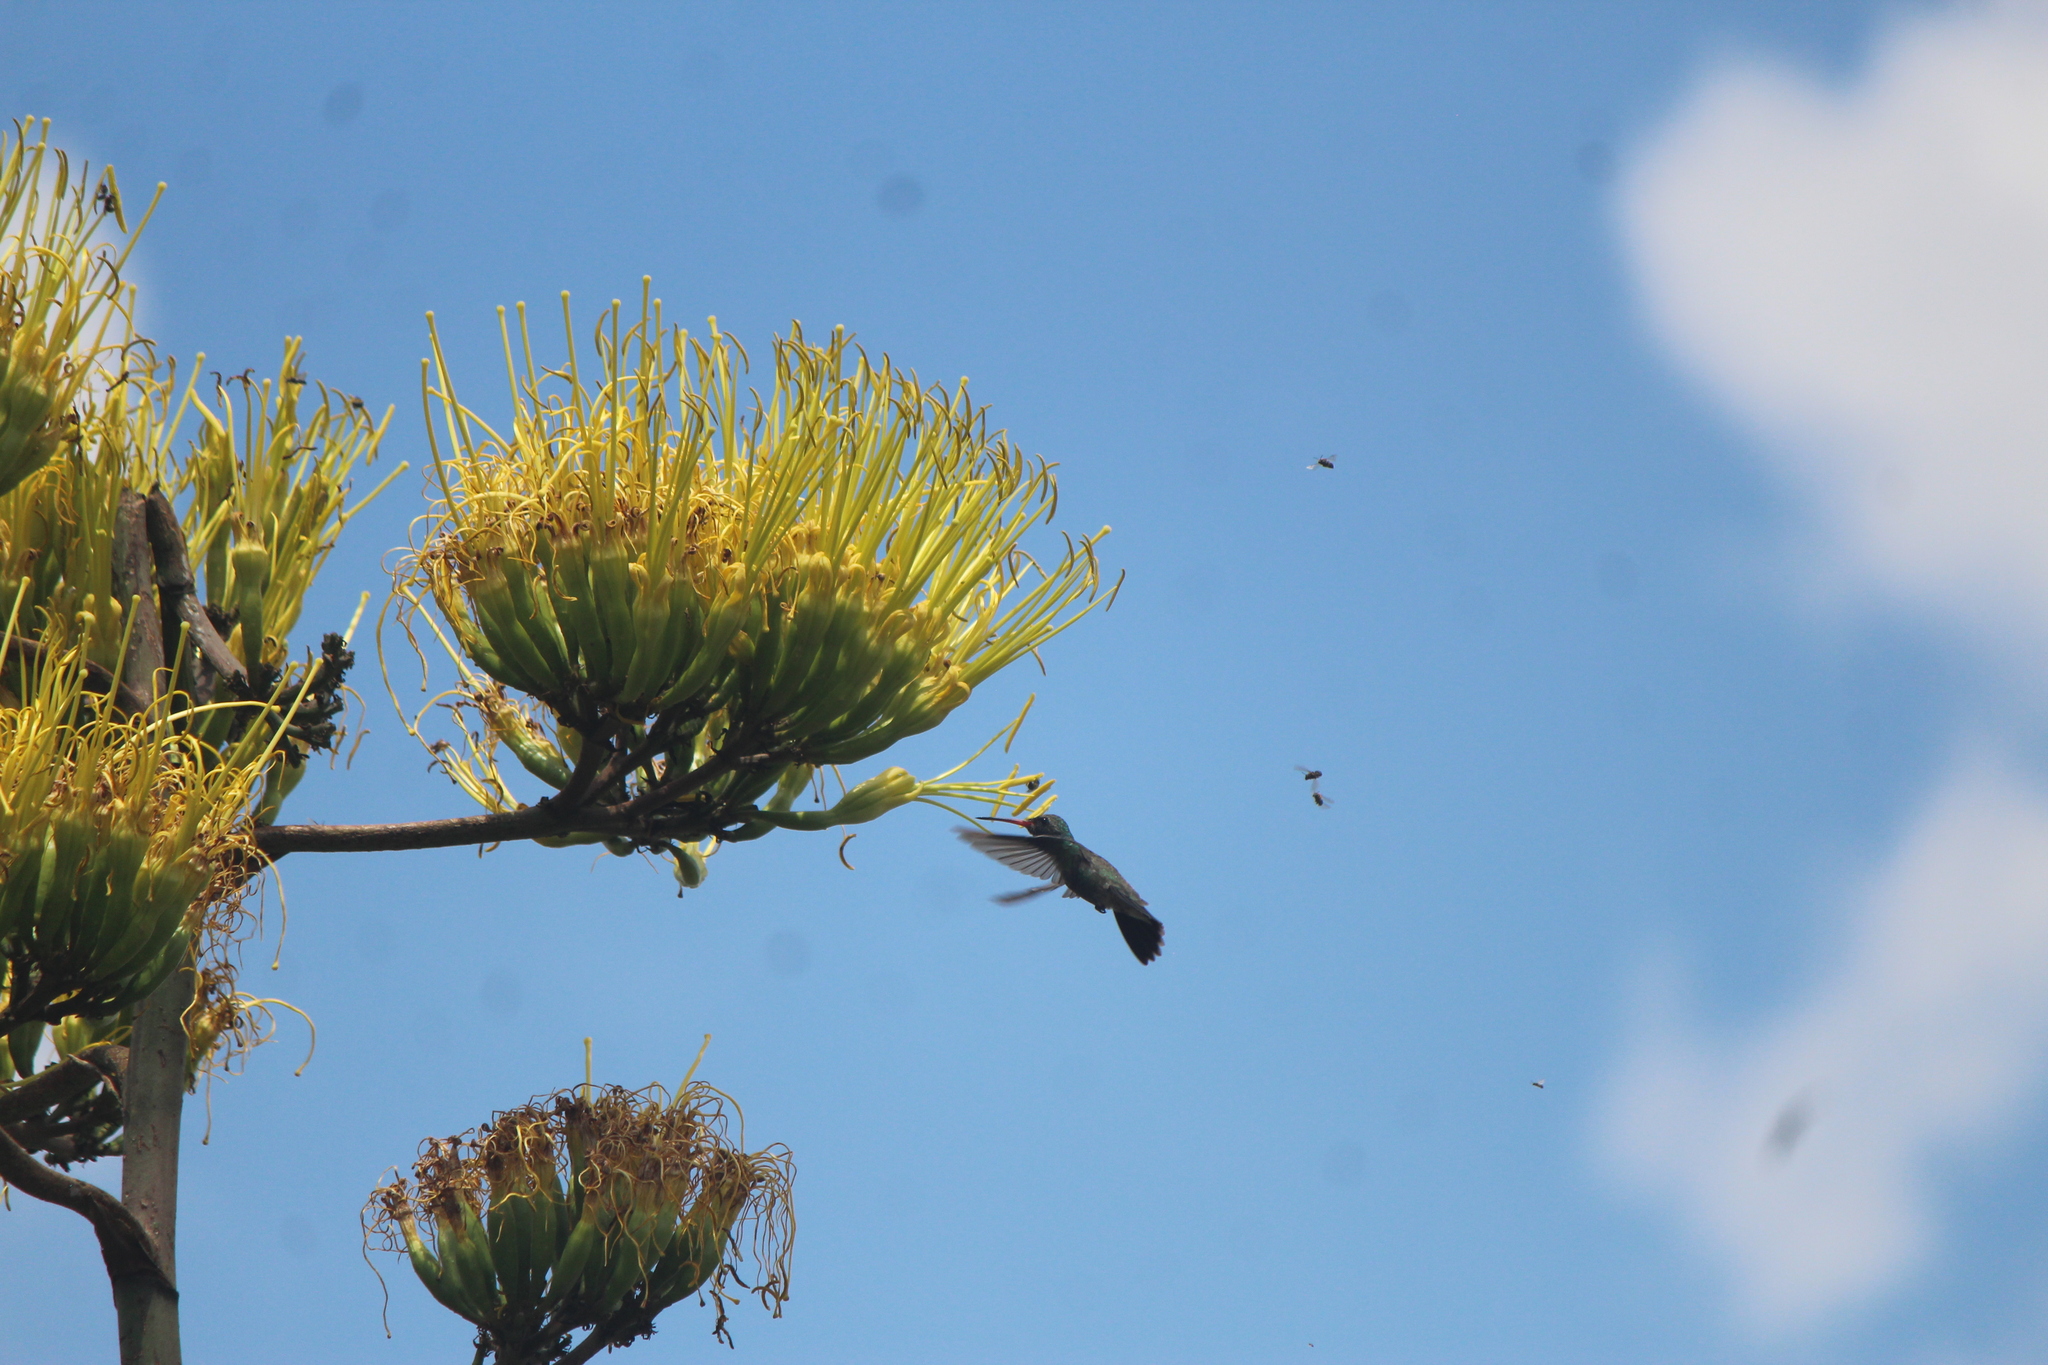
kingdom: Animalia
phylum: Chordata
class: Aves
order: Apodiformes
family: Trochilidae
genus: Cynanthus
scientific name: Cynanthus latirostris
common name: Broad-billed hummingbird
